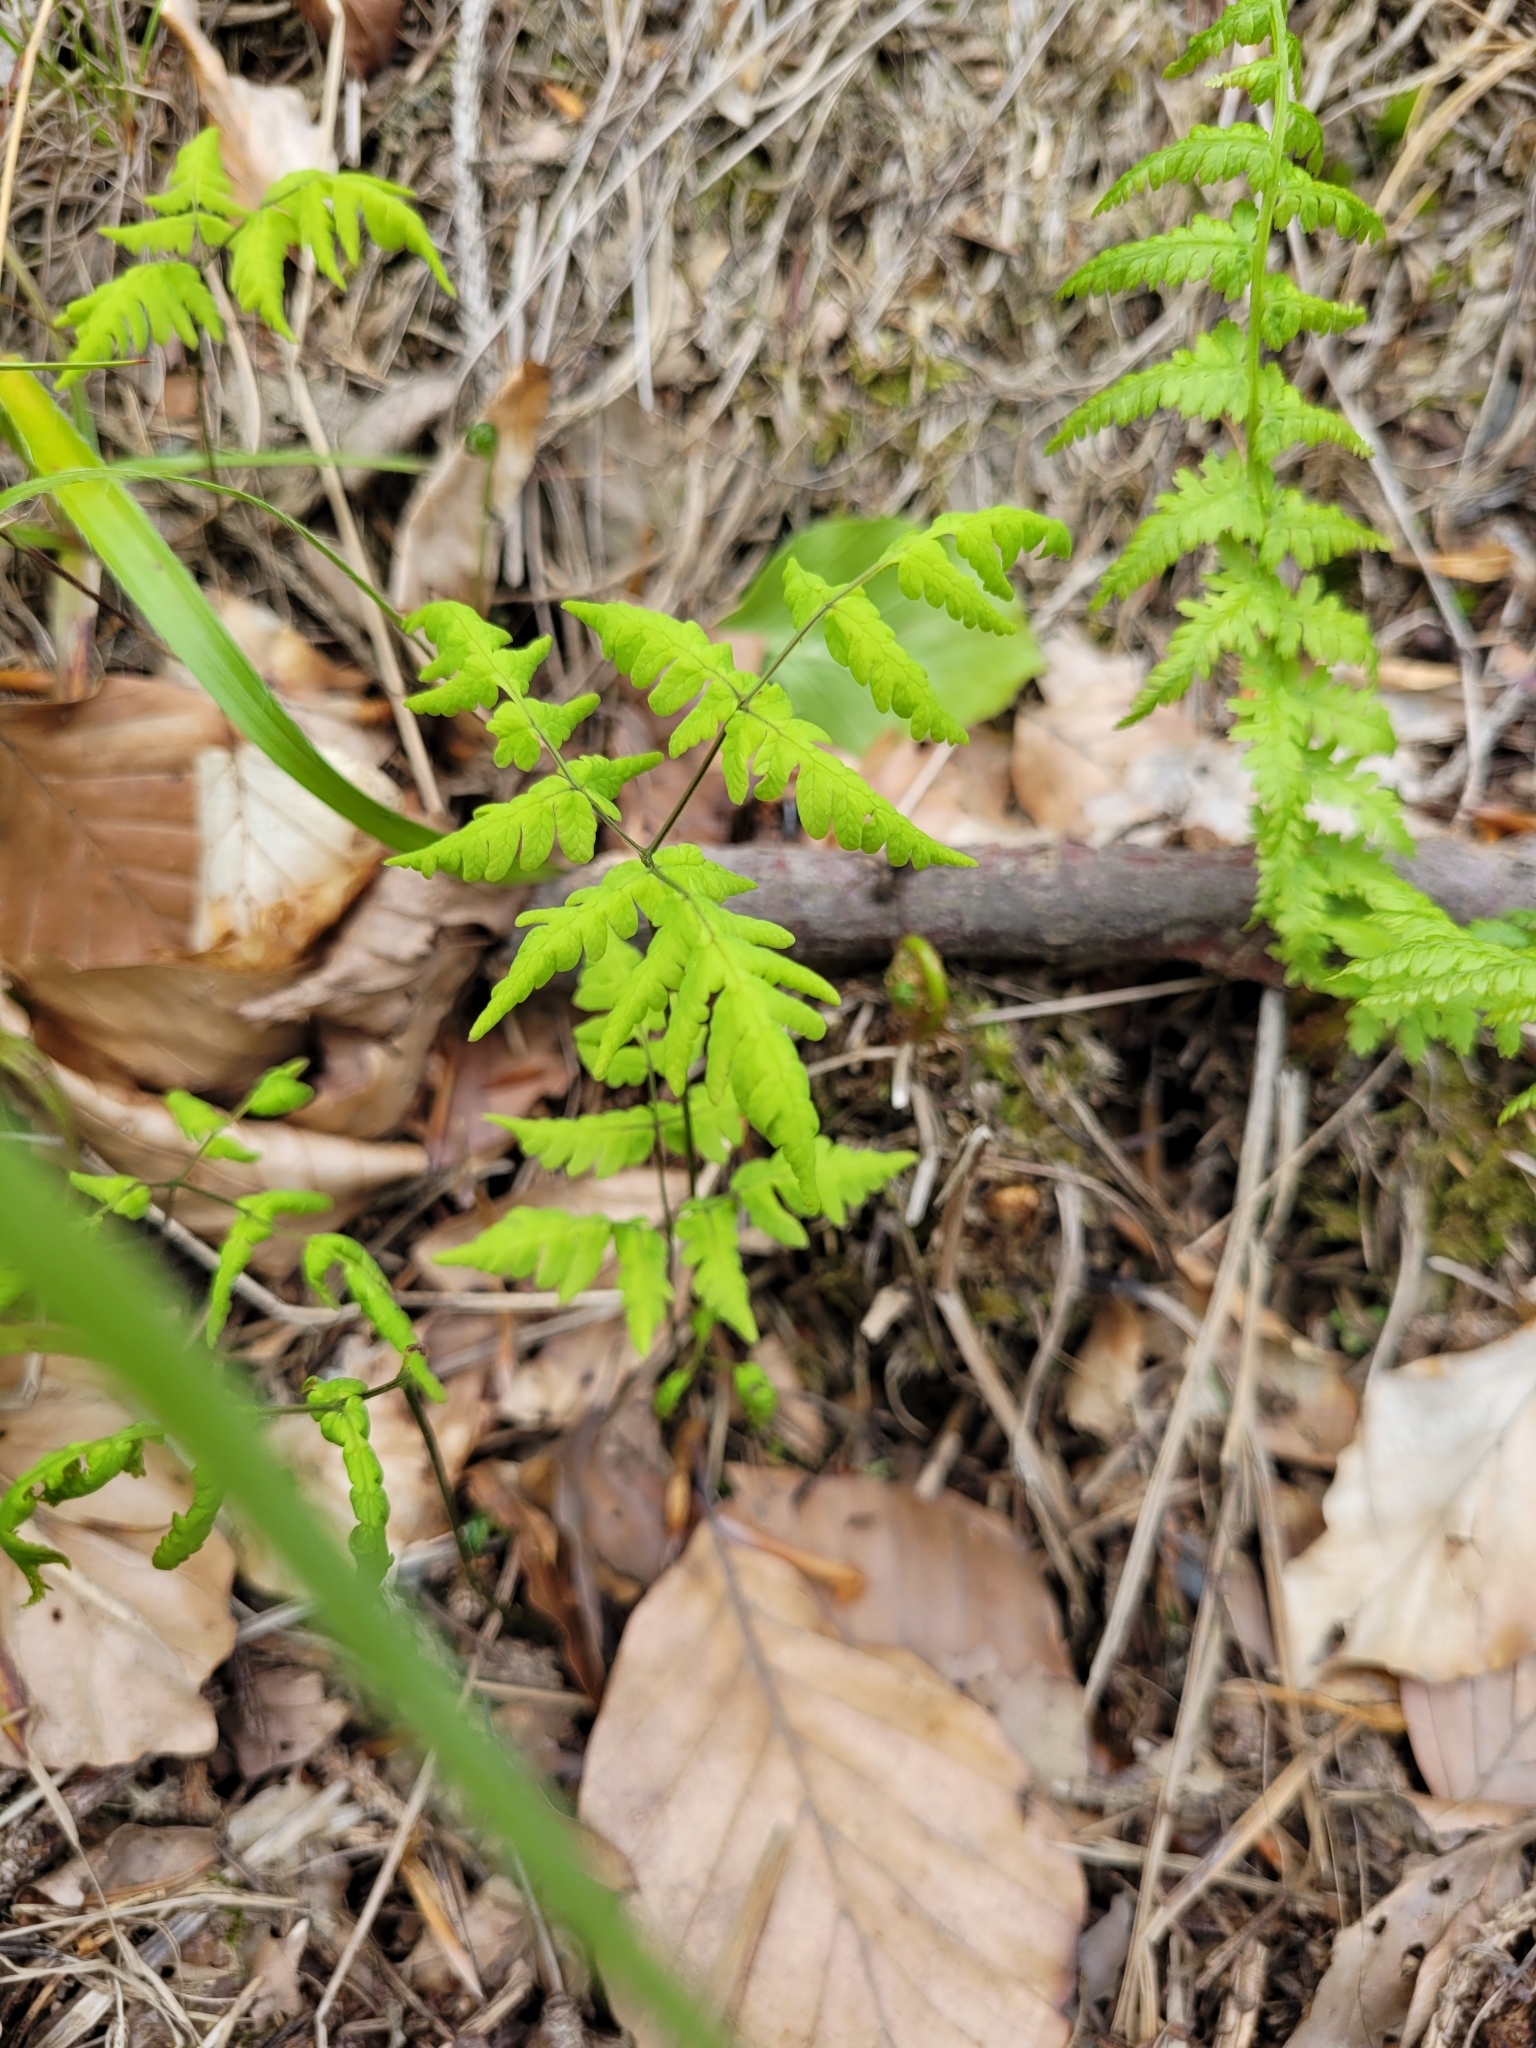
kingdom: Plantae
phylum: Tracheophyta
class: Polypodiopsida
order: Polypodiales
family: Cystopteridaceae
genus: Gymnocarpium
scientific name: Gymnocarpium dryopteris
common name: Oak fern
